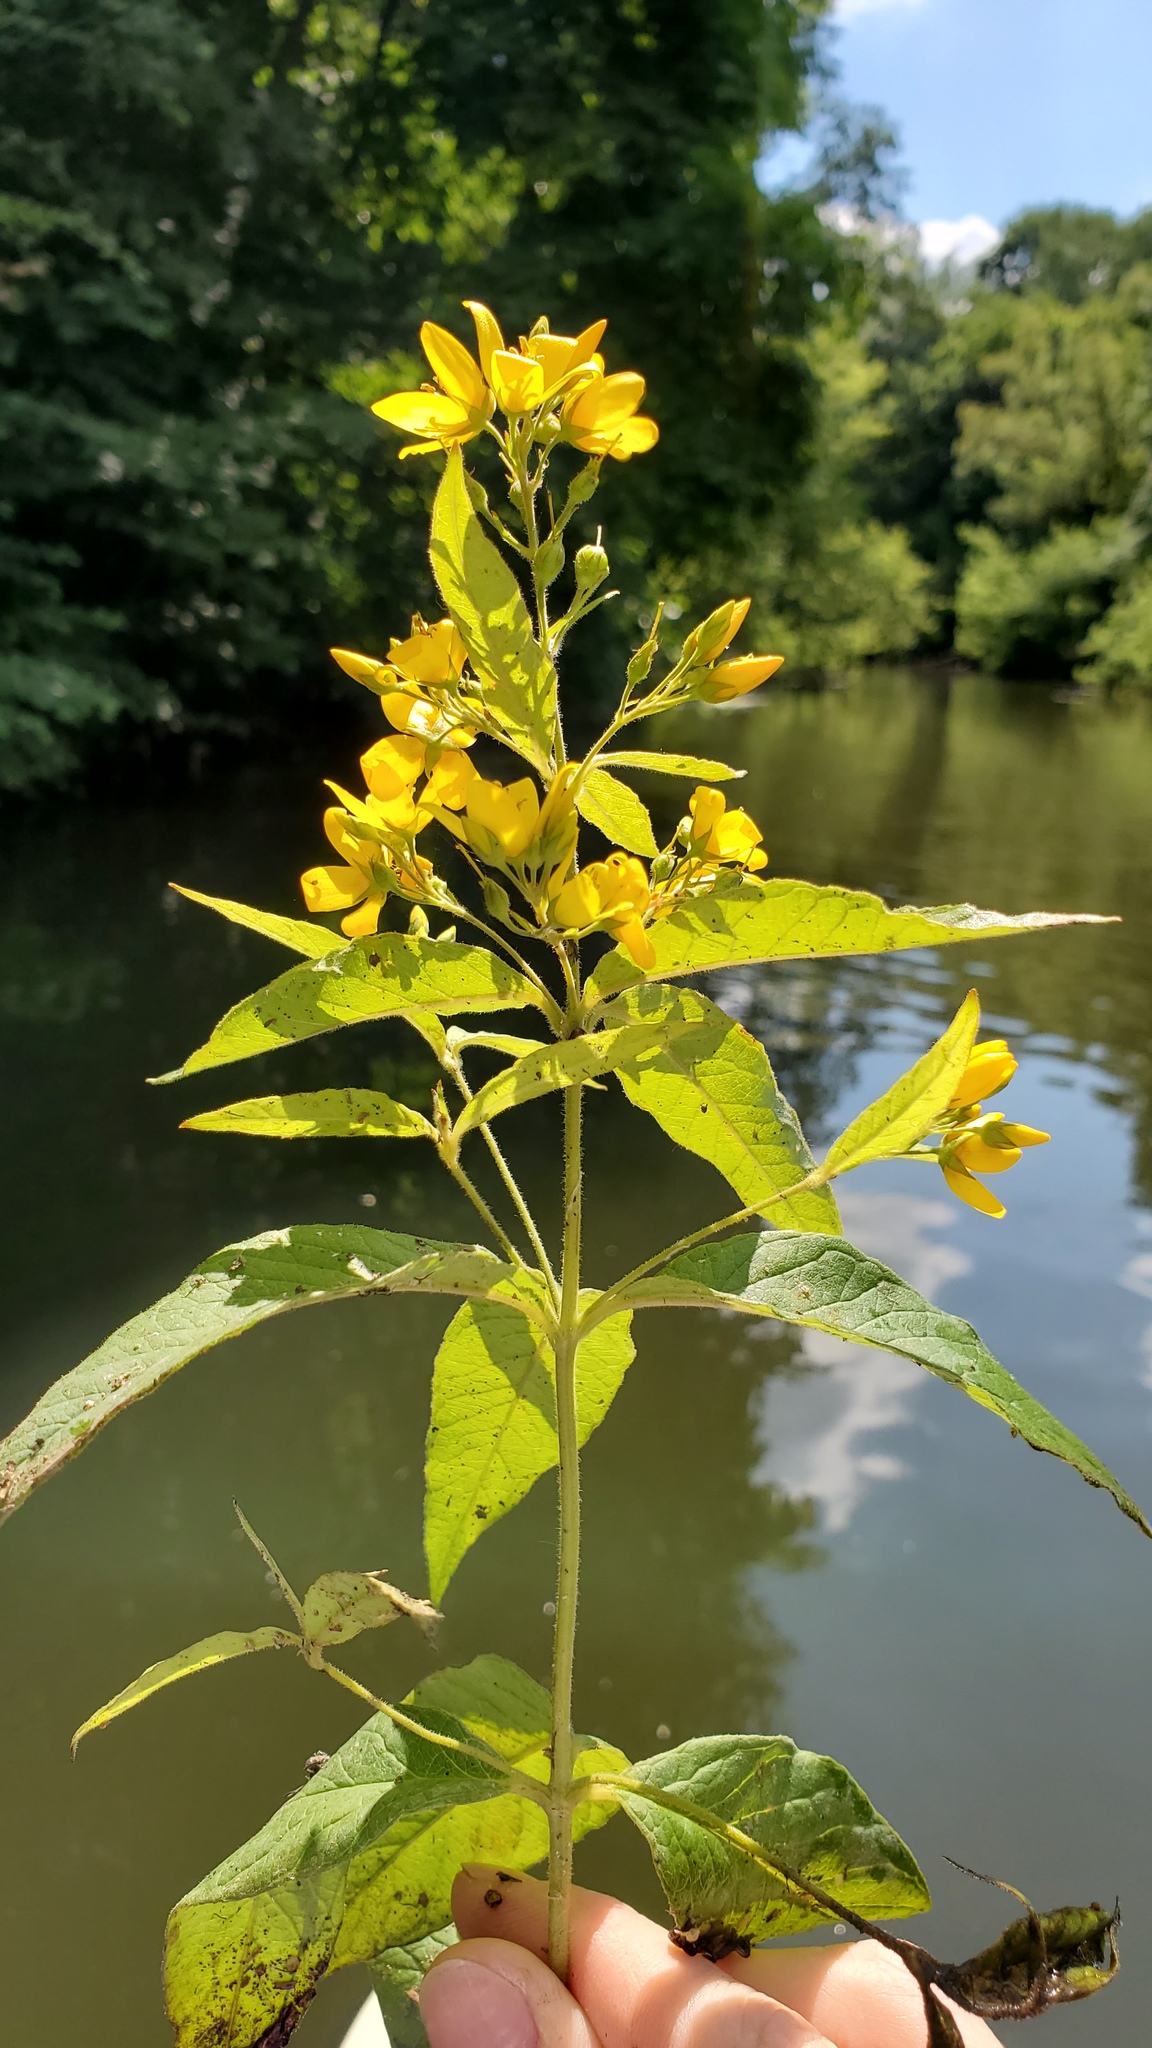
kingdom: Plantae
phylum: Tracheophyta
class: Magnoliopsida
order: Ericales
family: Primulaceae
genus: Lysimachia
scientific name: Lysimachia vulgaris
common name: Yellow loosestrife
